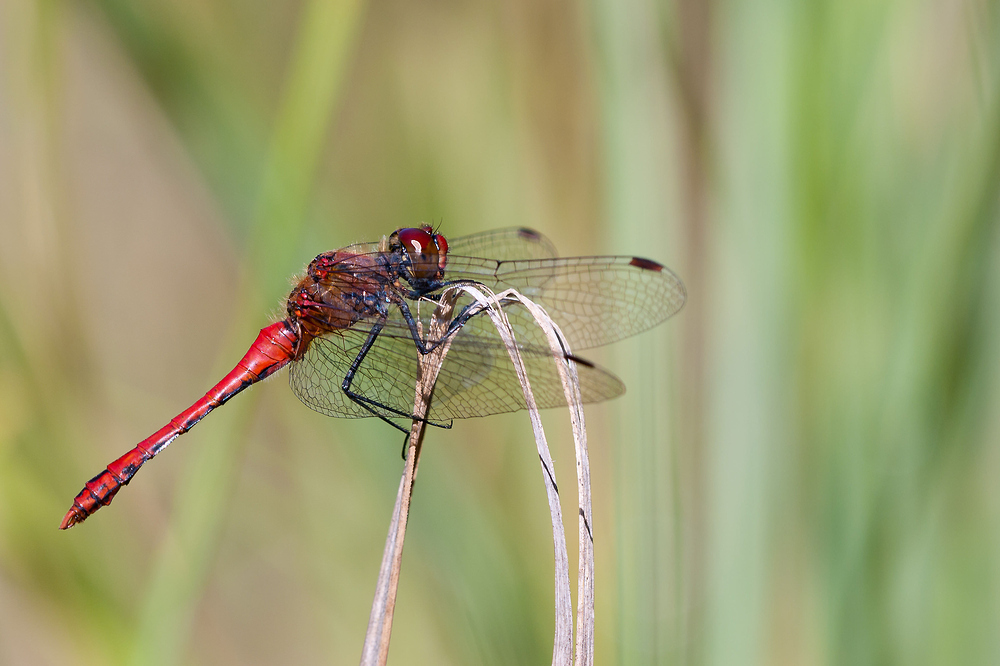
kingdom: Animalia
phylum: Arthropoda
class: Insecta
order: Odonata
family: Libellulidae
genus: Sympetrum
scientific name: Sympetrum sanguineum
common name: Ruddy darter
